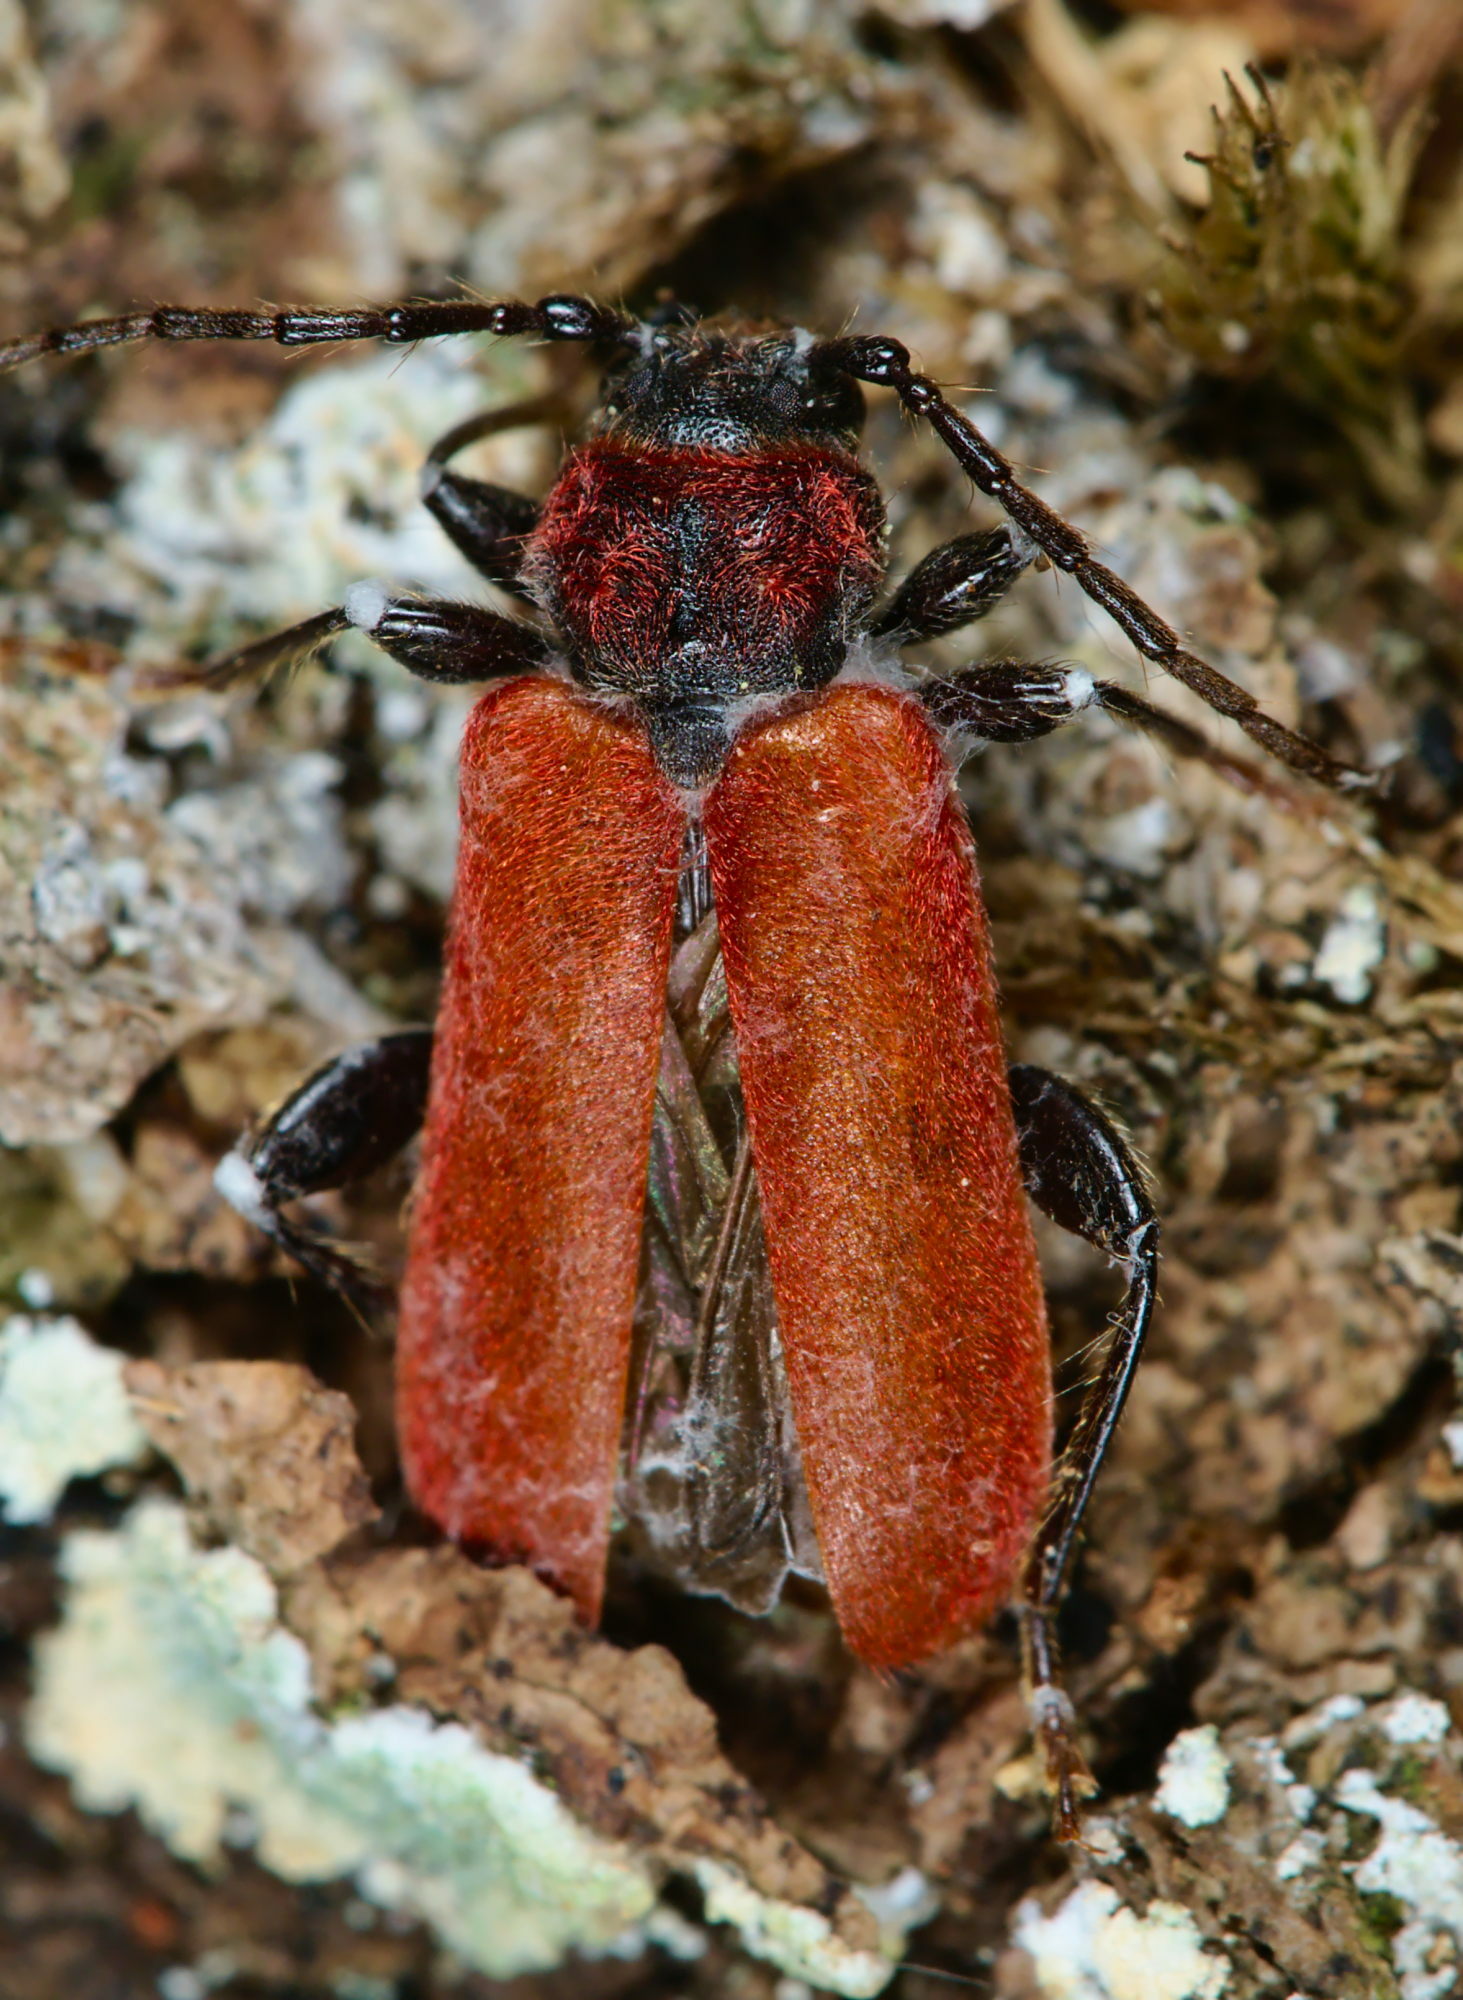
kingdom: Animalia
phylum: Arthropoda
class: Insecta
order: Coleoptera
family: Cerambycidae
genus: Pyrrhidium
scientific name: Pyrrhidium sanguineum
